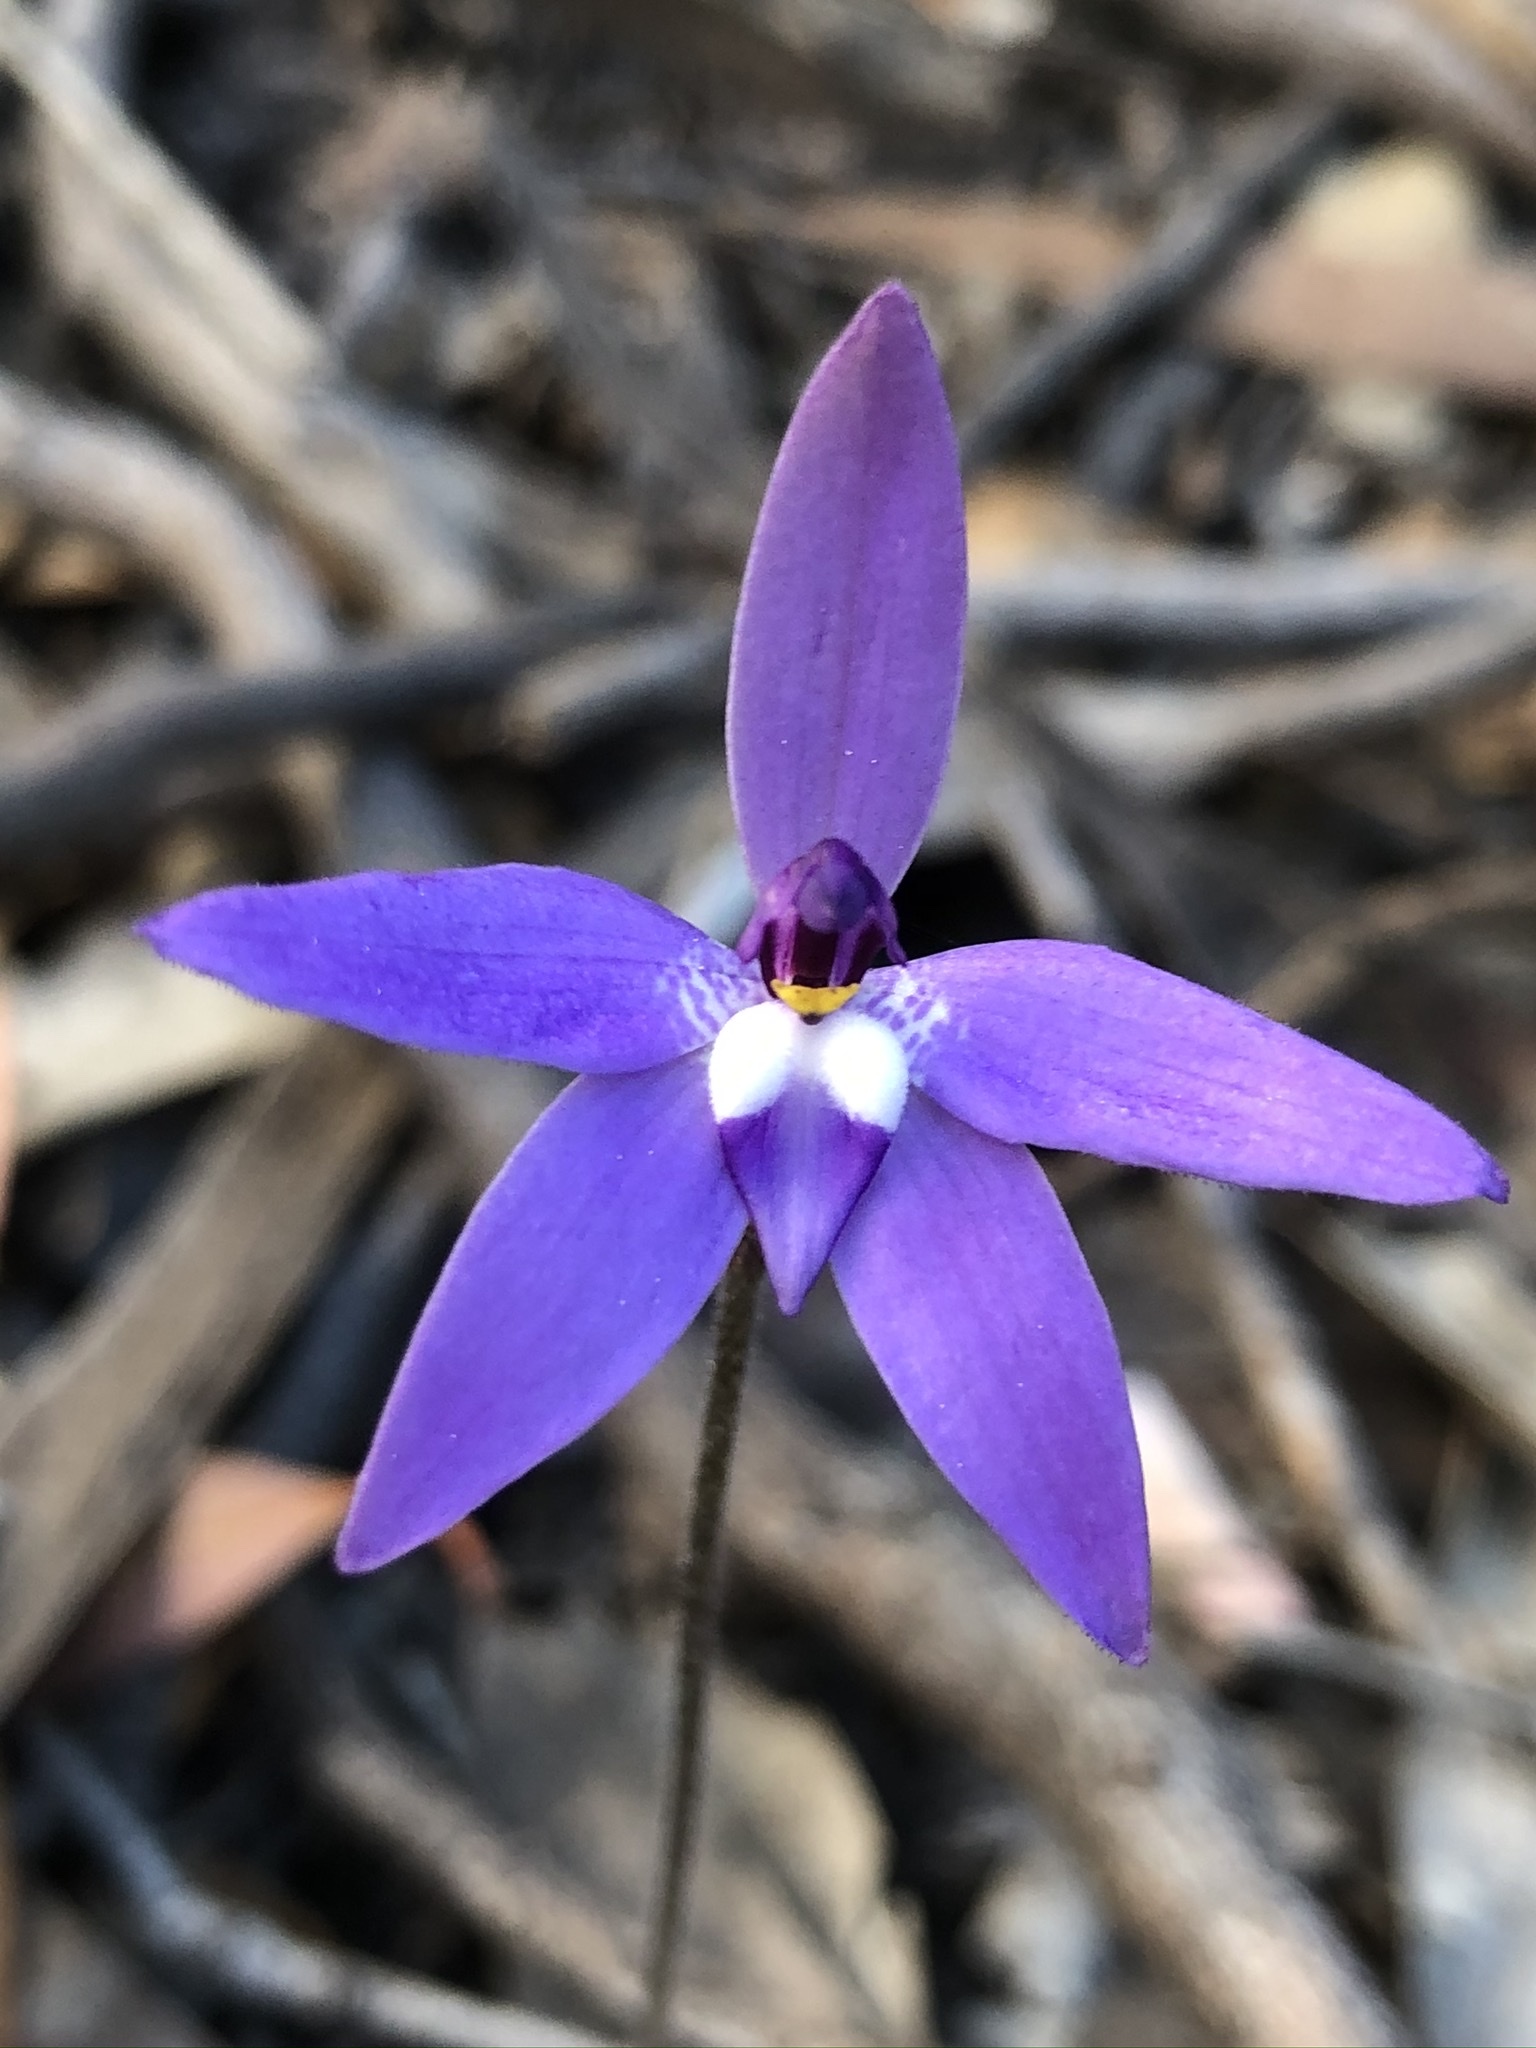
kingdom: Plantae
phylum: Tracheophyta
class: Liliopsida
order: Asparagales
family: Orchidaceae
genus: Caladenia
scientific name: Caladenia major
